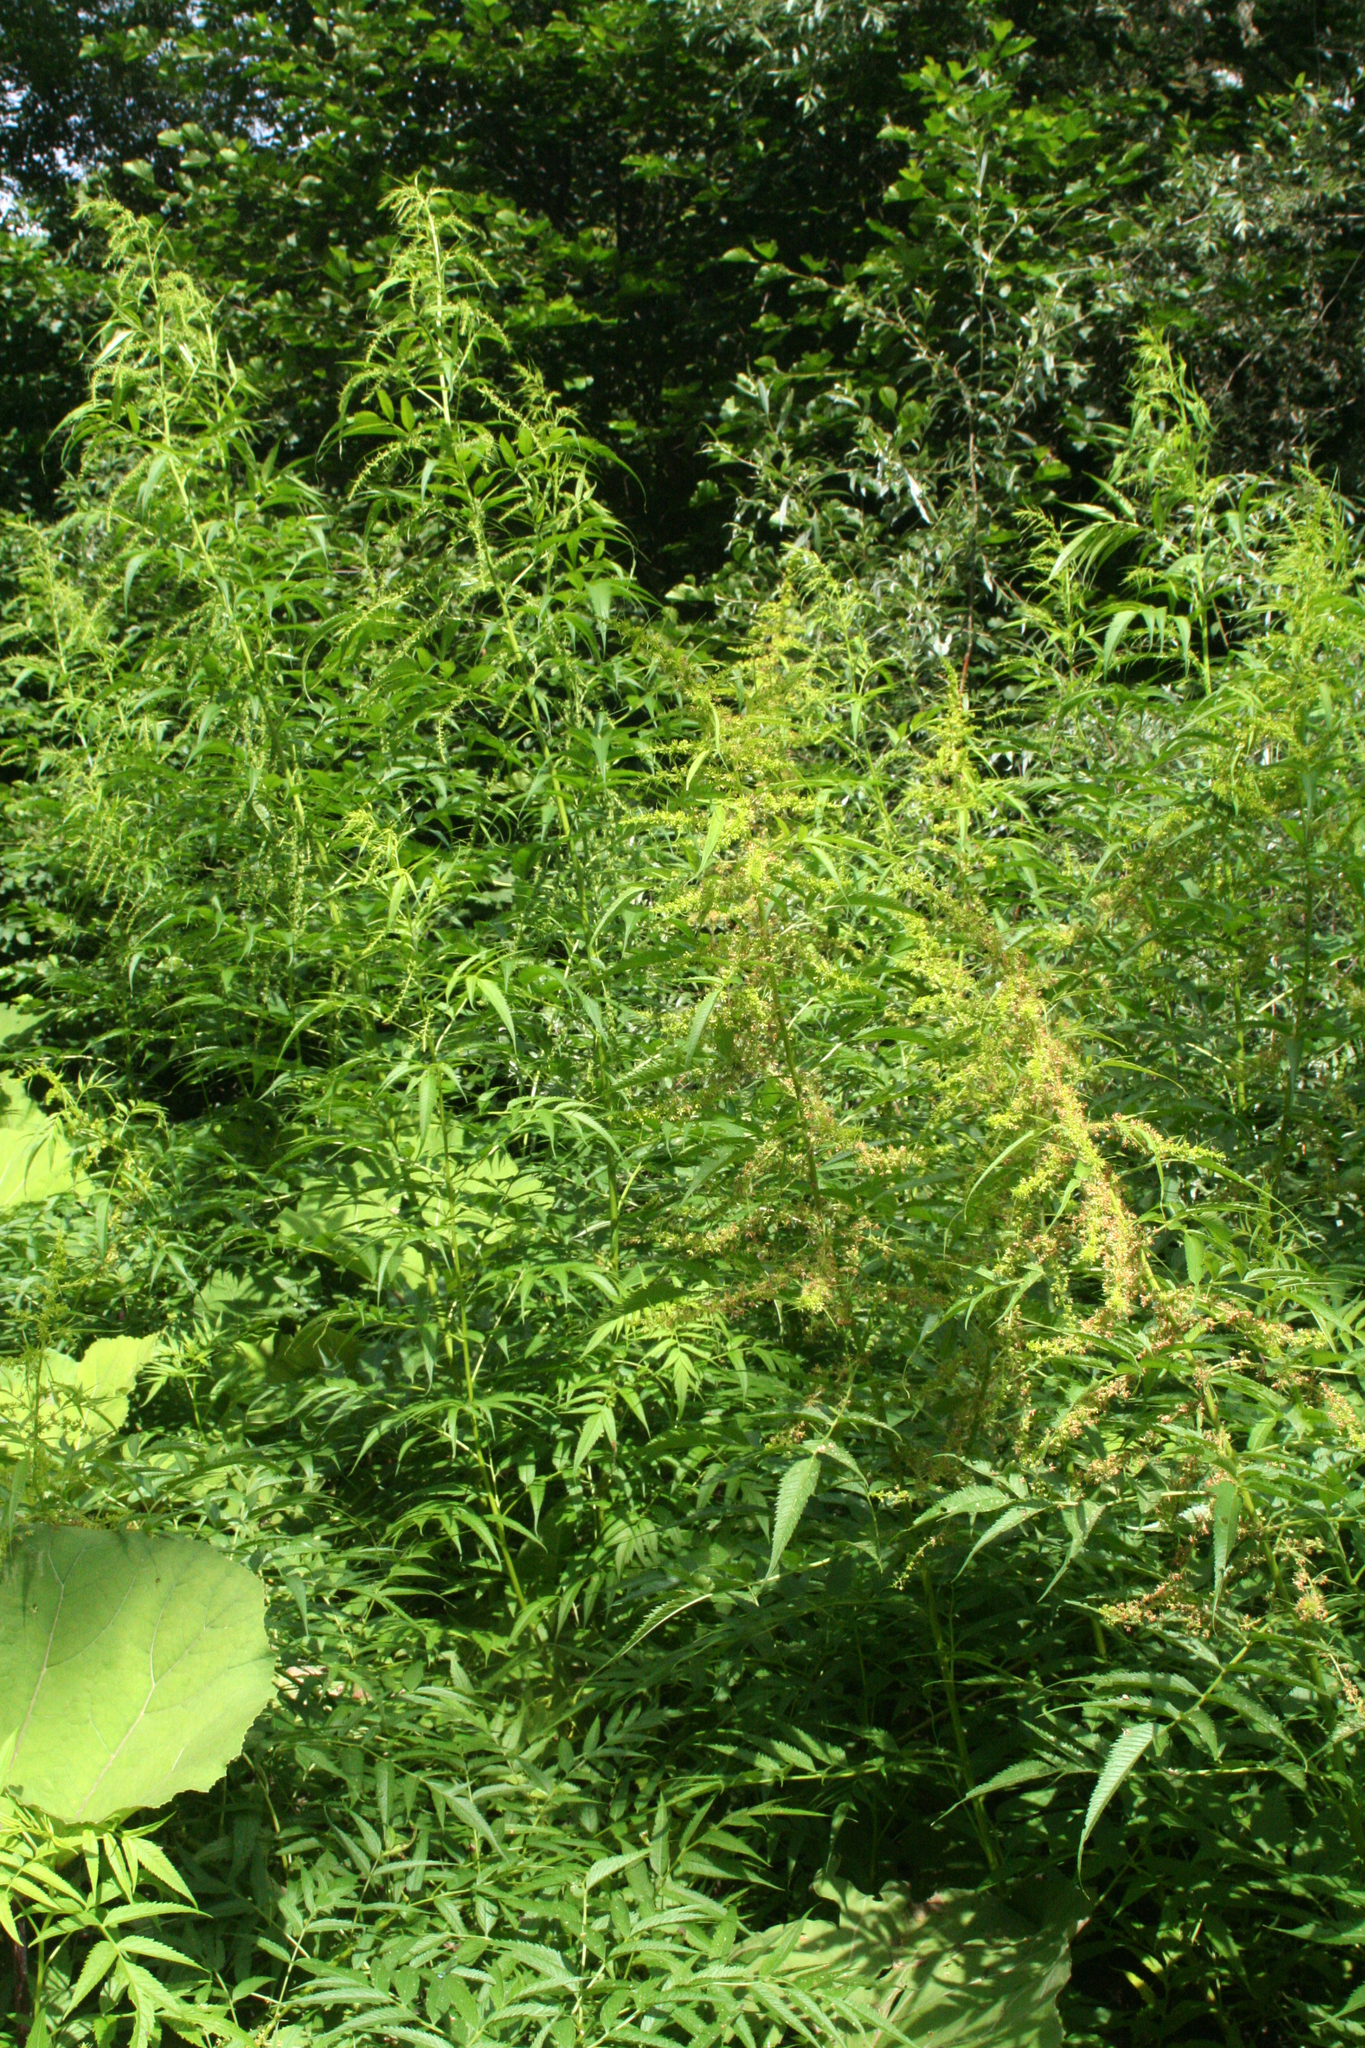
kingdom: Plantae
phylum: Tracheophyta
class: Magnoliopsida
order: Cucurbitales
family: Datiscaceae
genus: Datisca
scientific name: Datisca cannabina
